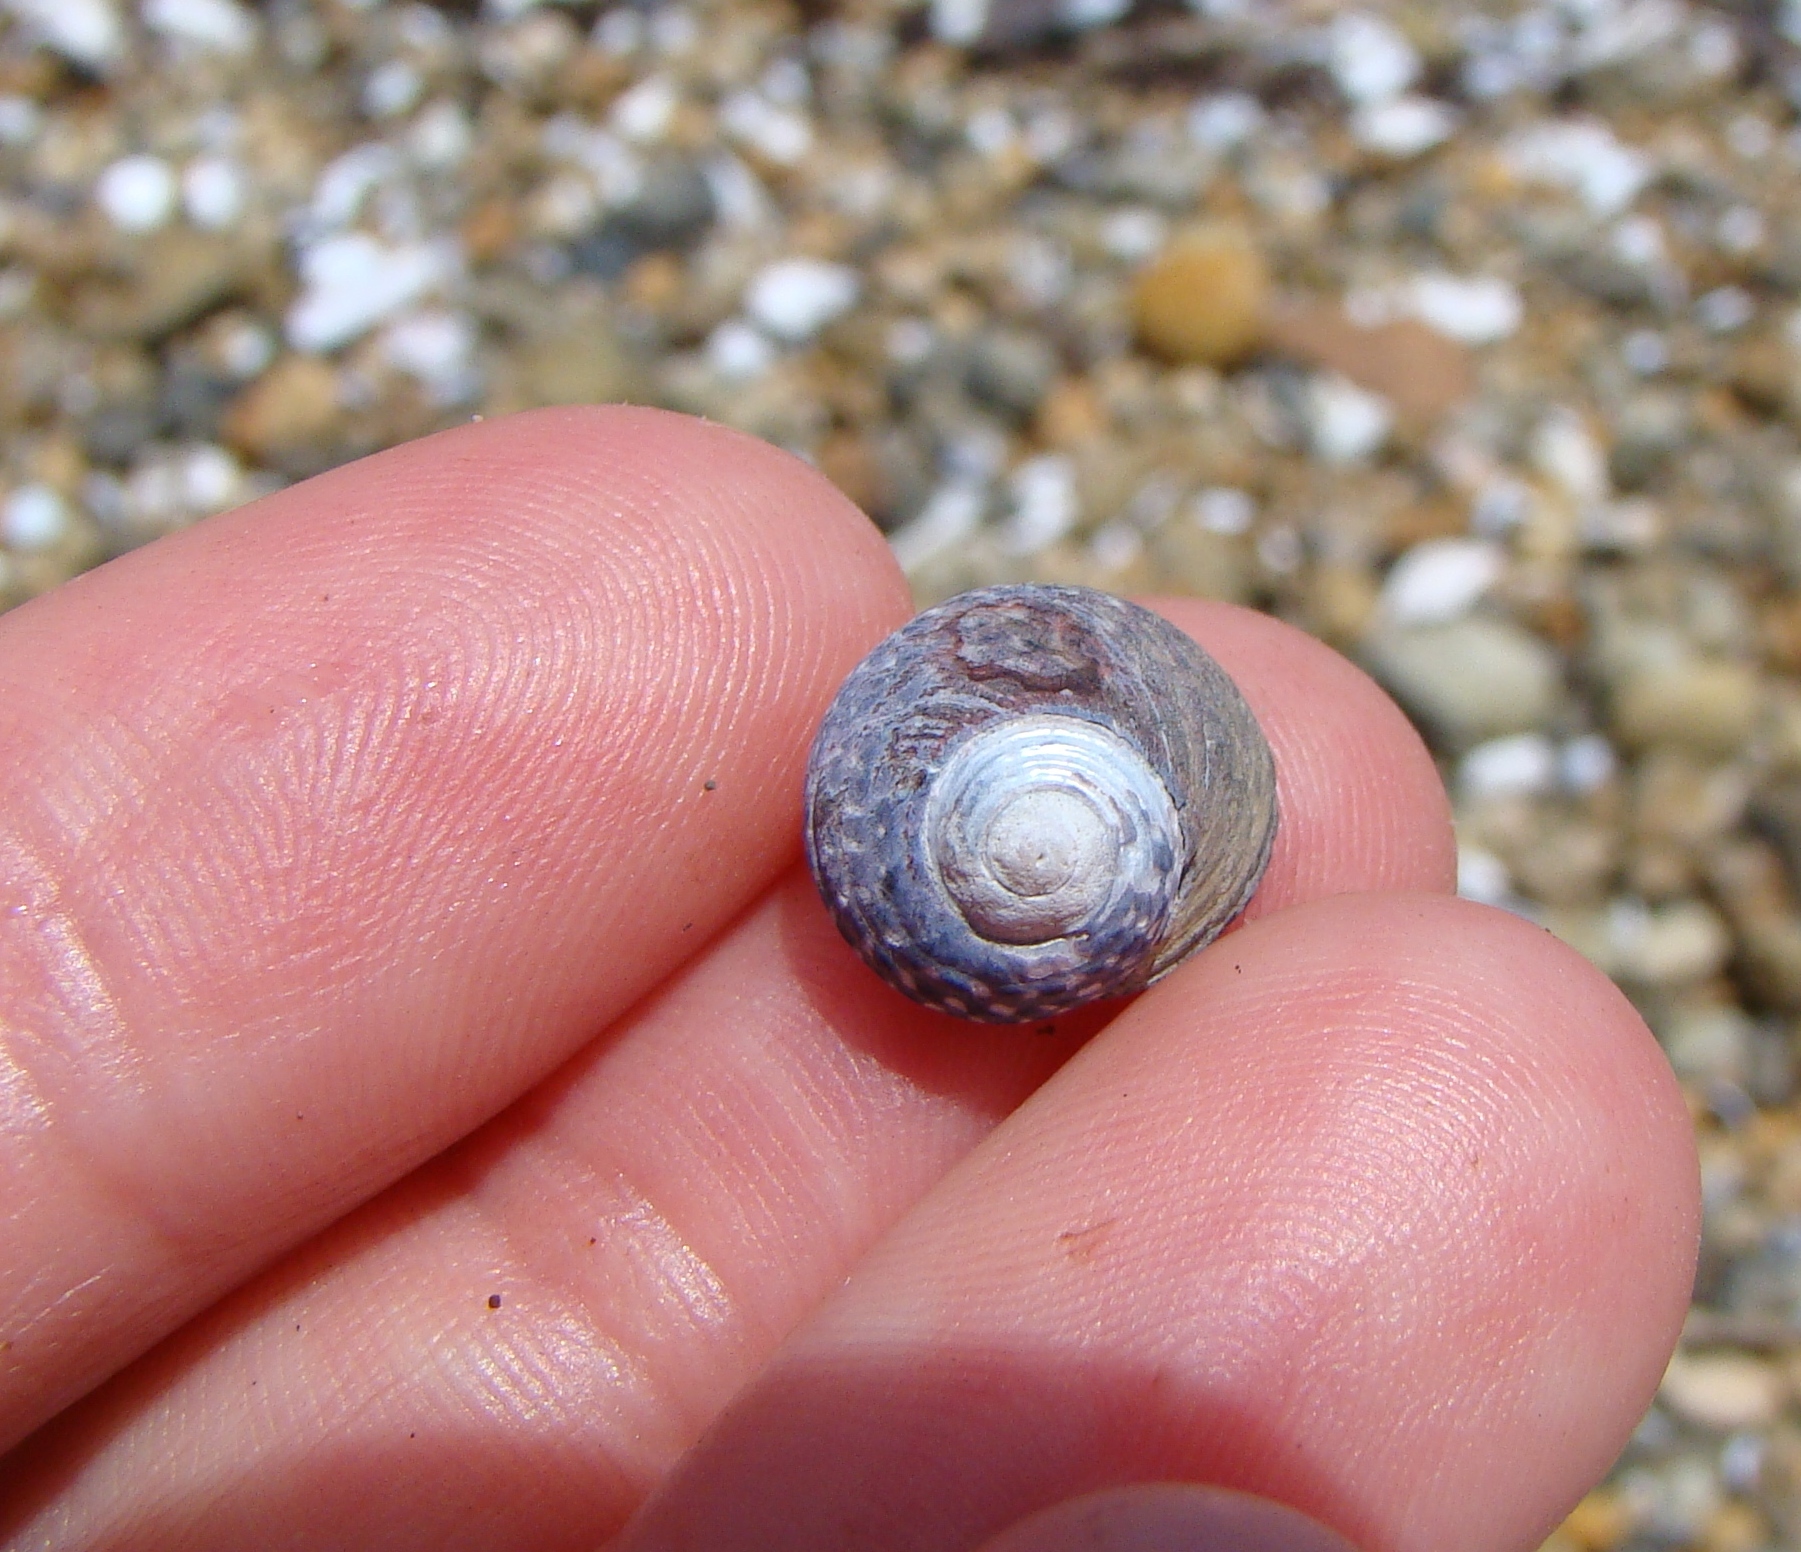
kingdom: Animalia
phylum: Mollusca
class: Gastropoda
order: Trochida
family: Trochidae
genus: Diloma
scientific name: Diloma aethiops
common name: Scorched monodont
